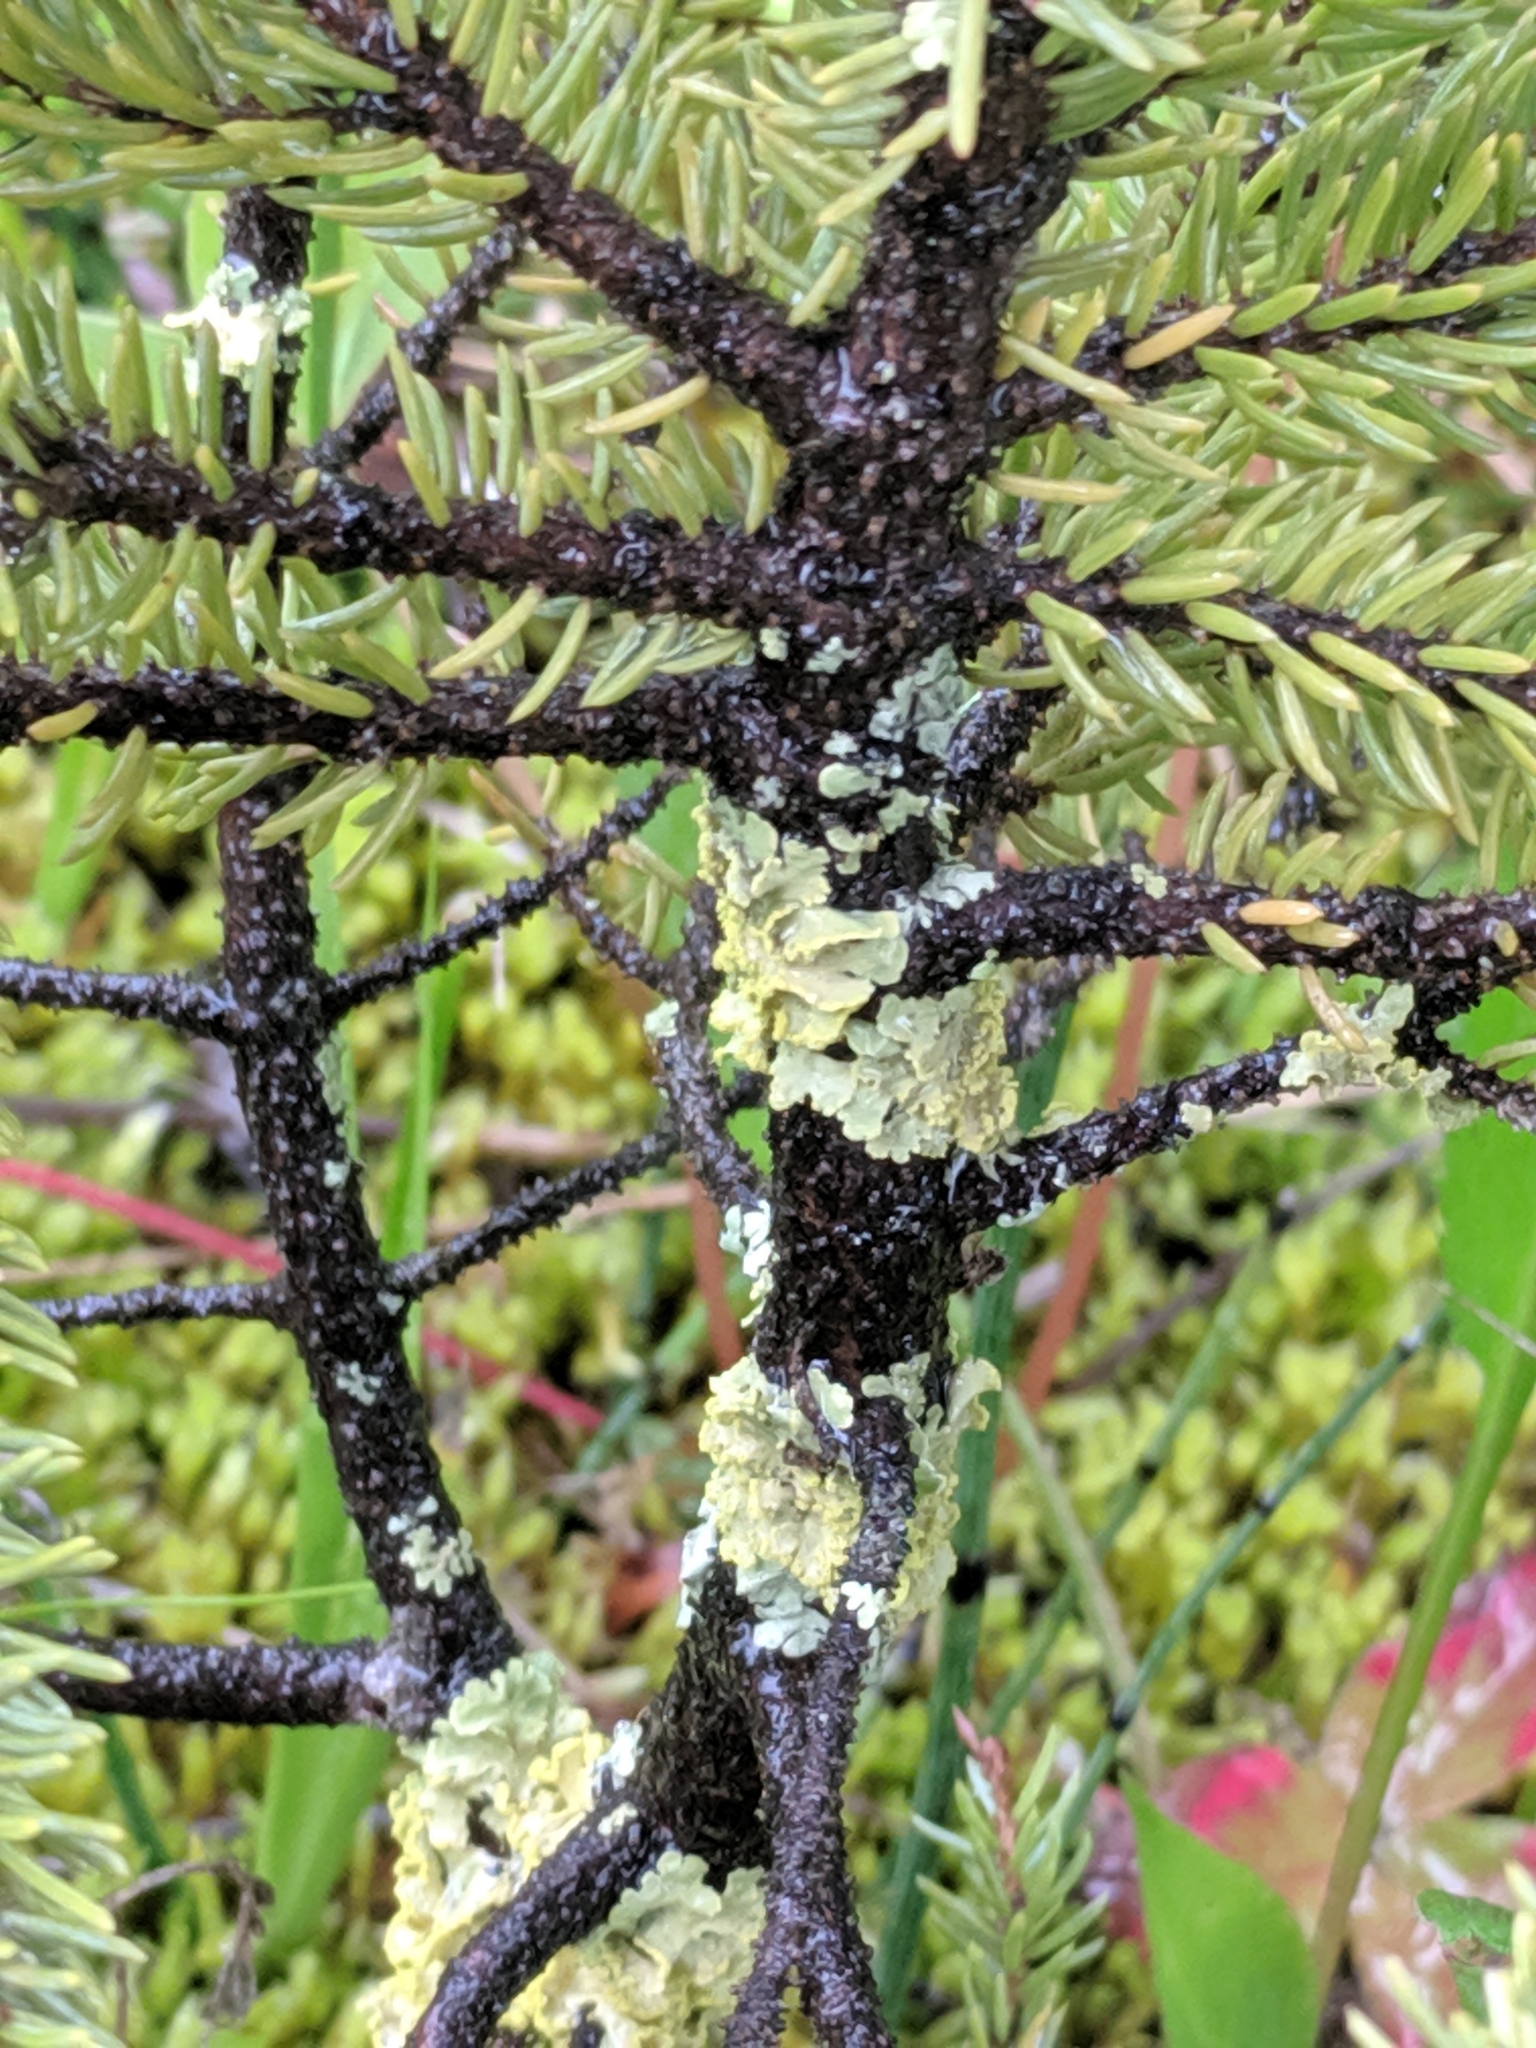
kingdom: Fungi
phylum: Ascomycota
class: Lecanoromycetes
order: Lecanorales
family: Parmeliaceae
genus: Vulpicida
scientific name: Vulpicida pinastri
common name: Powdered sunshine lichen
